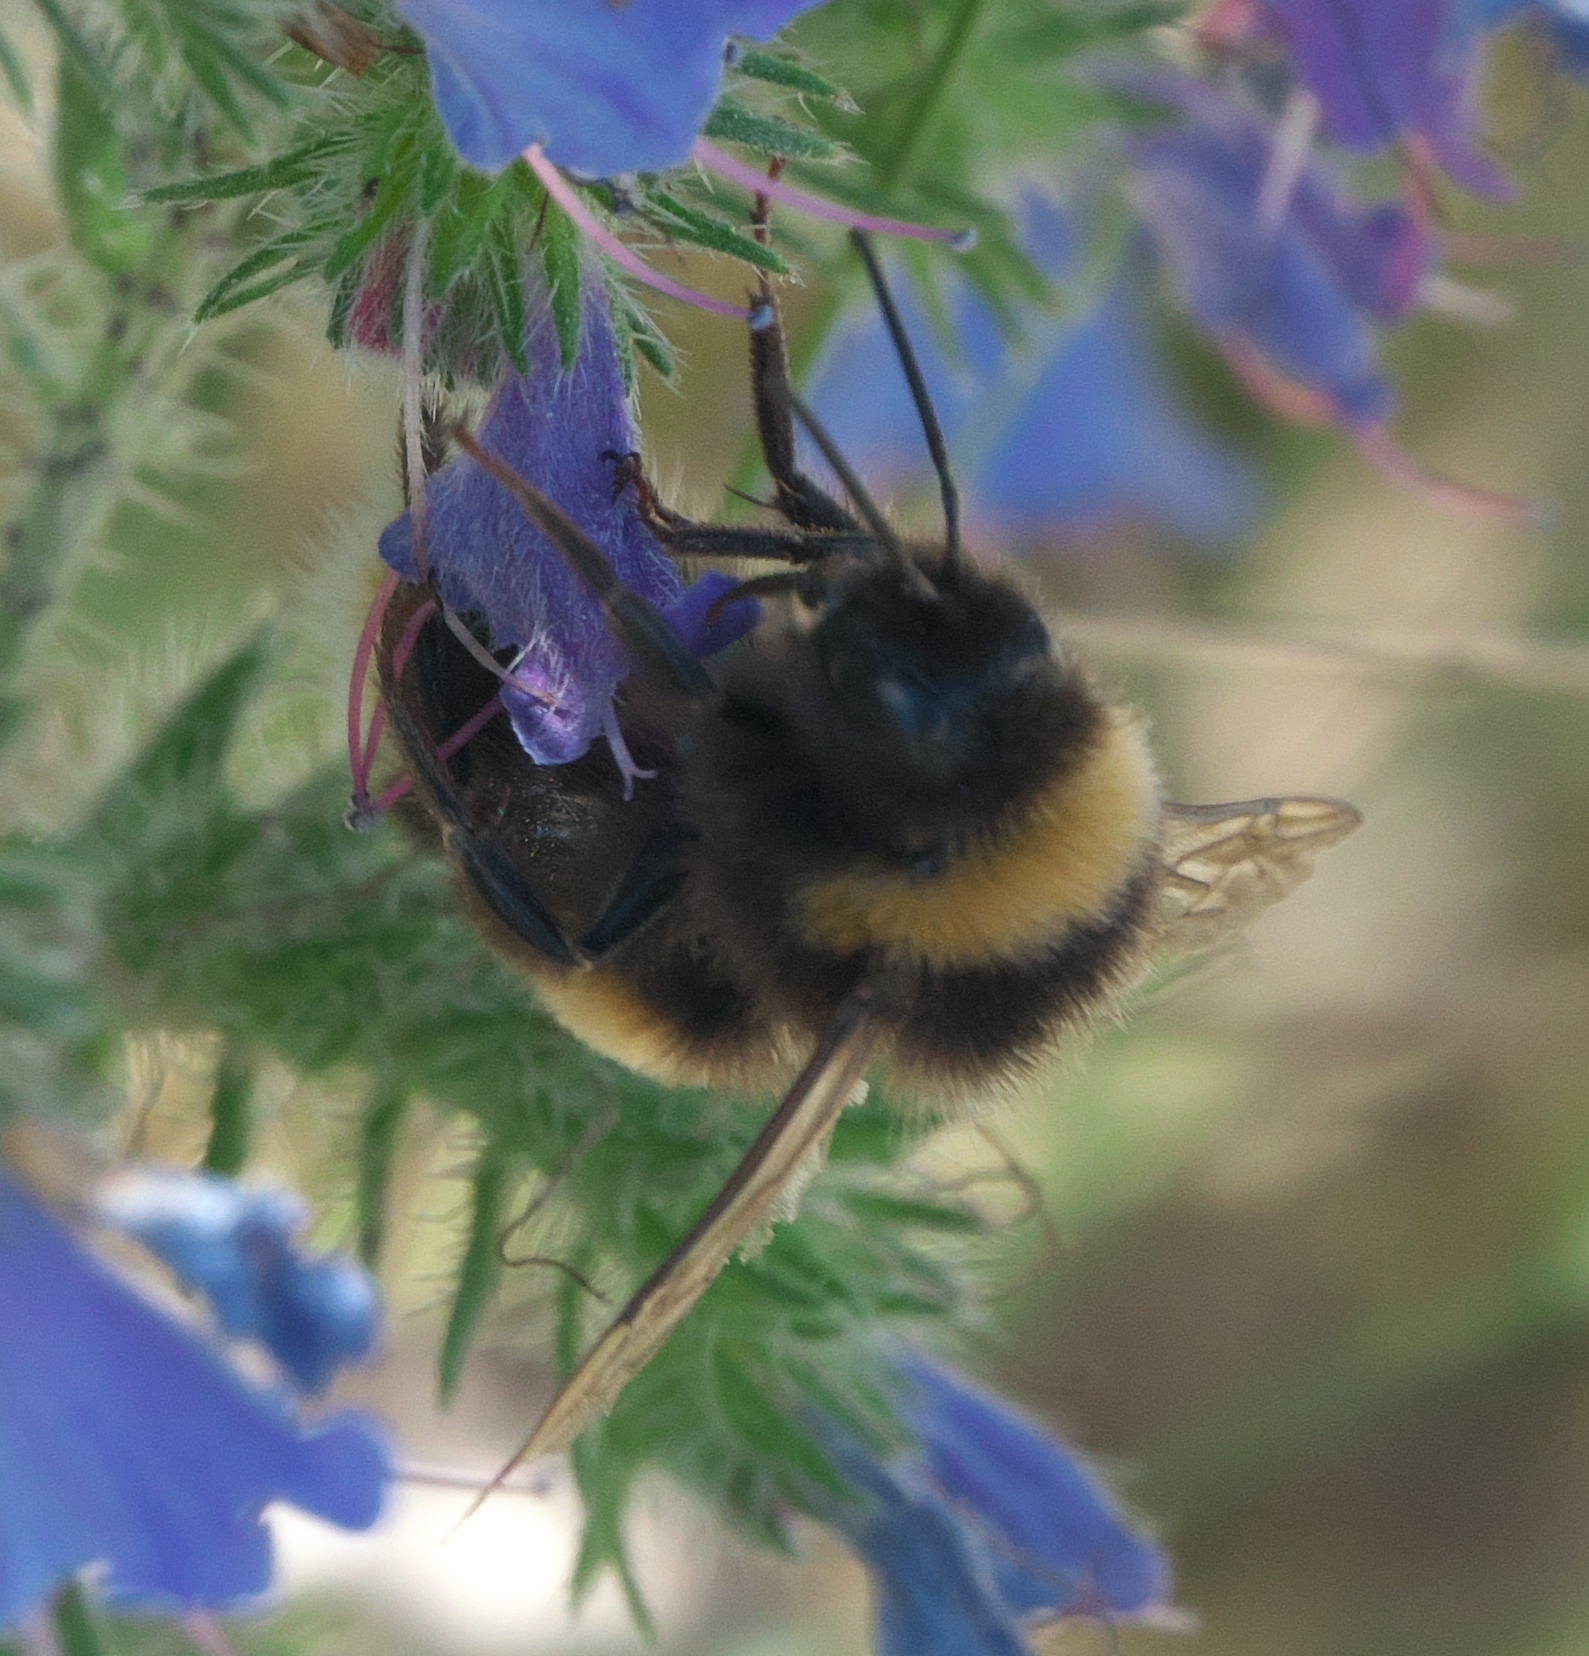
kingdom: Animalia
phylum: Arthropoda
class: Insecta
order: Hymenoptera
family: Apidae
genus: Bombus
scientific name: Bombus terrestris
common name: Buff-tailed bumblebee
